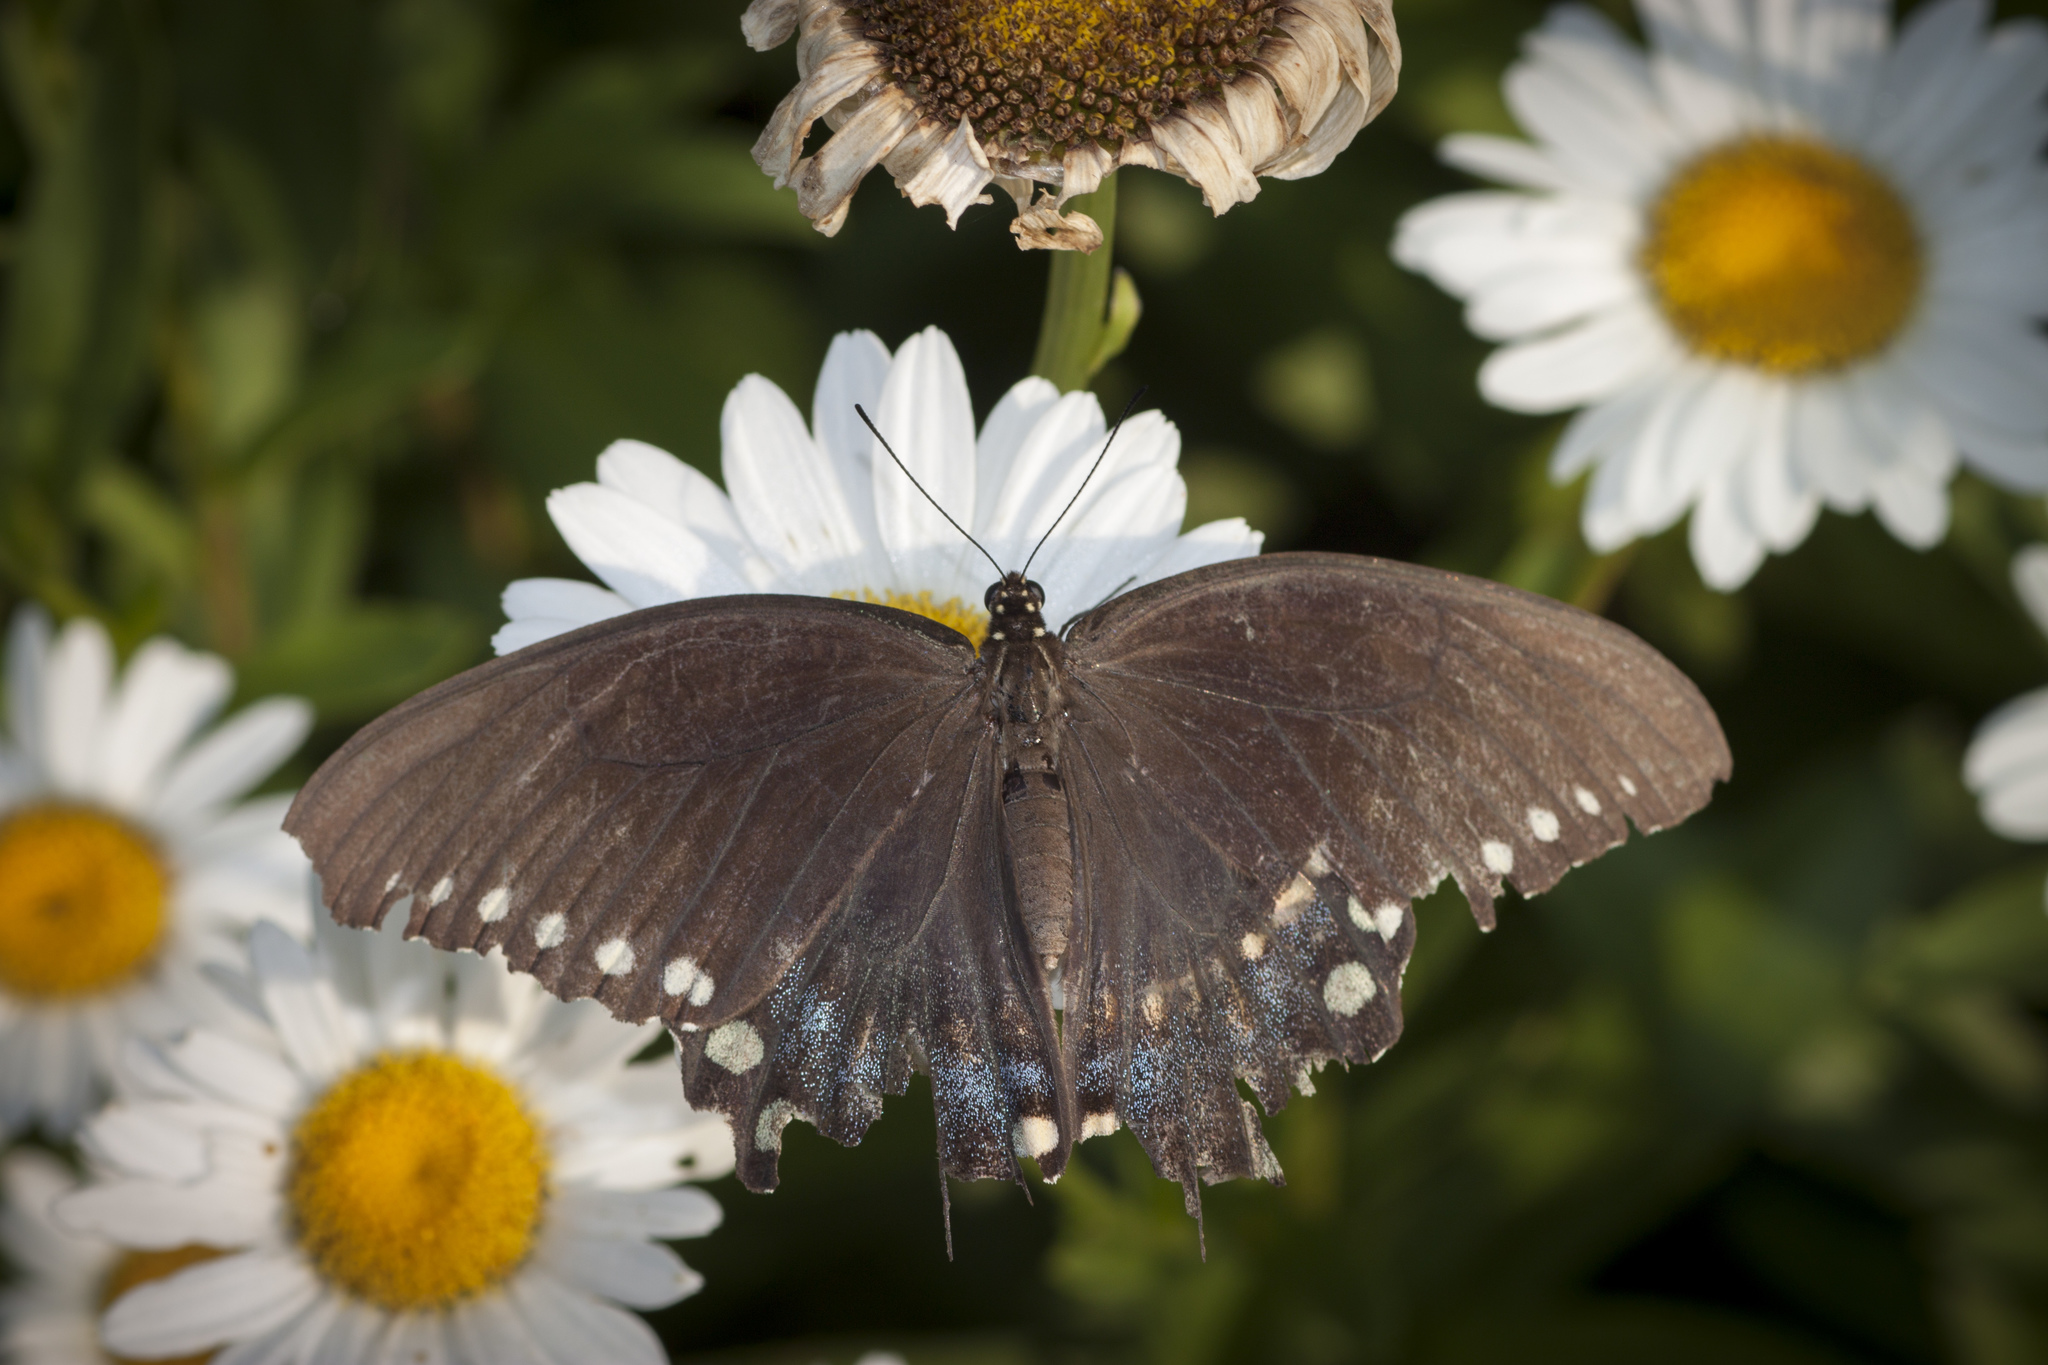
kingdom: Animalia
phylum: Arthropoda
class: Insecta
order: Lepidoptera
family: Papilionidae
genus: Papilio
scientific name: Papilio troilus
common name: Spicebush swallowtail
